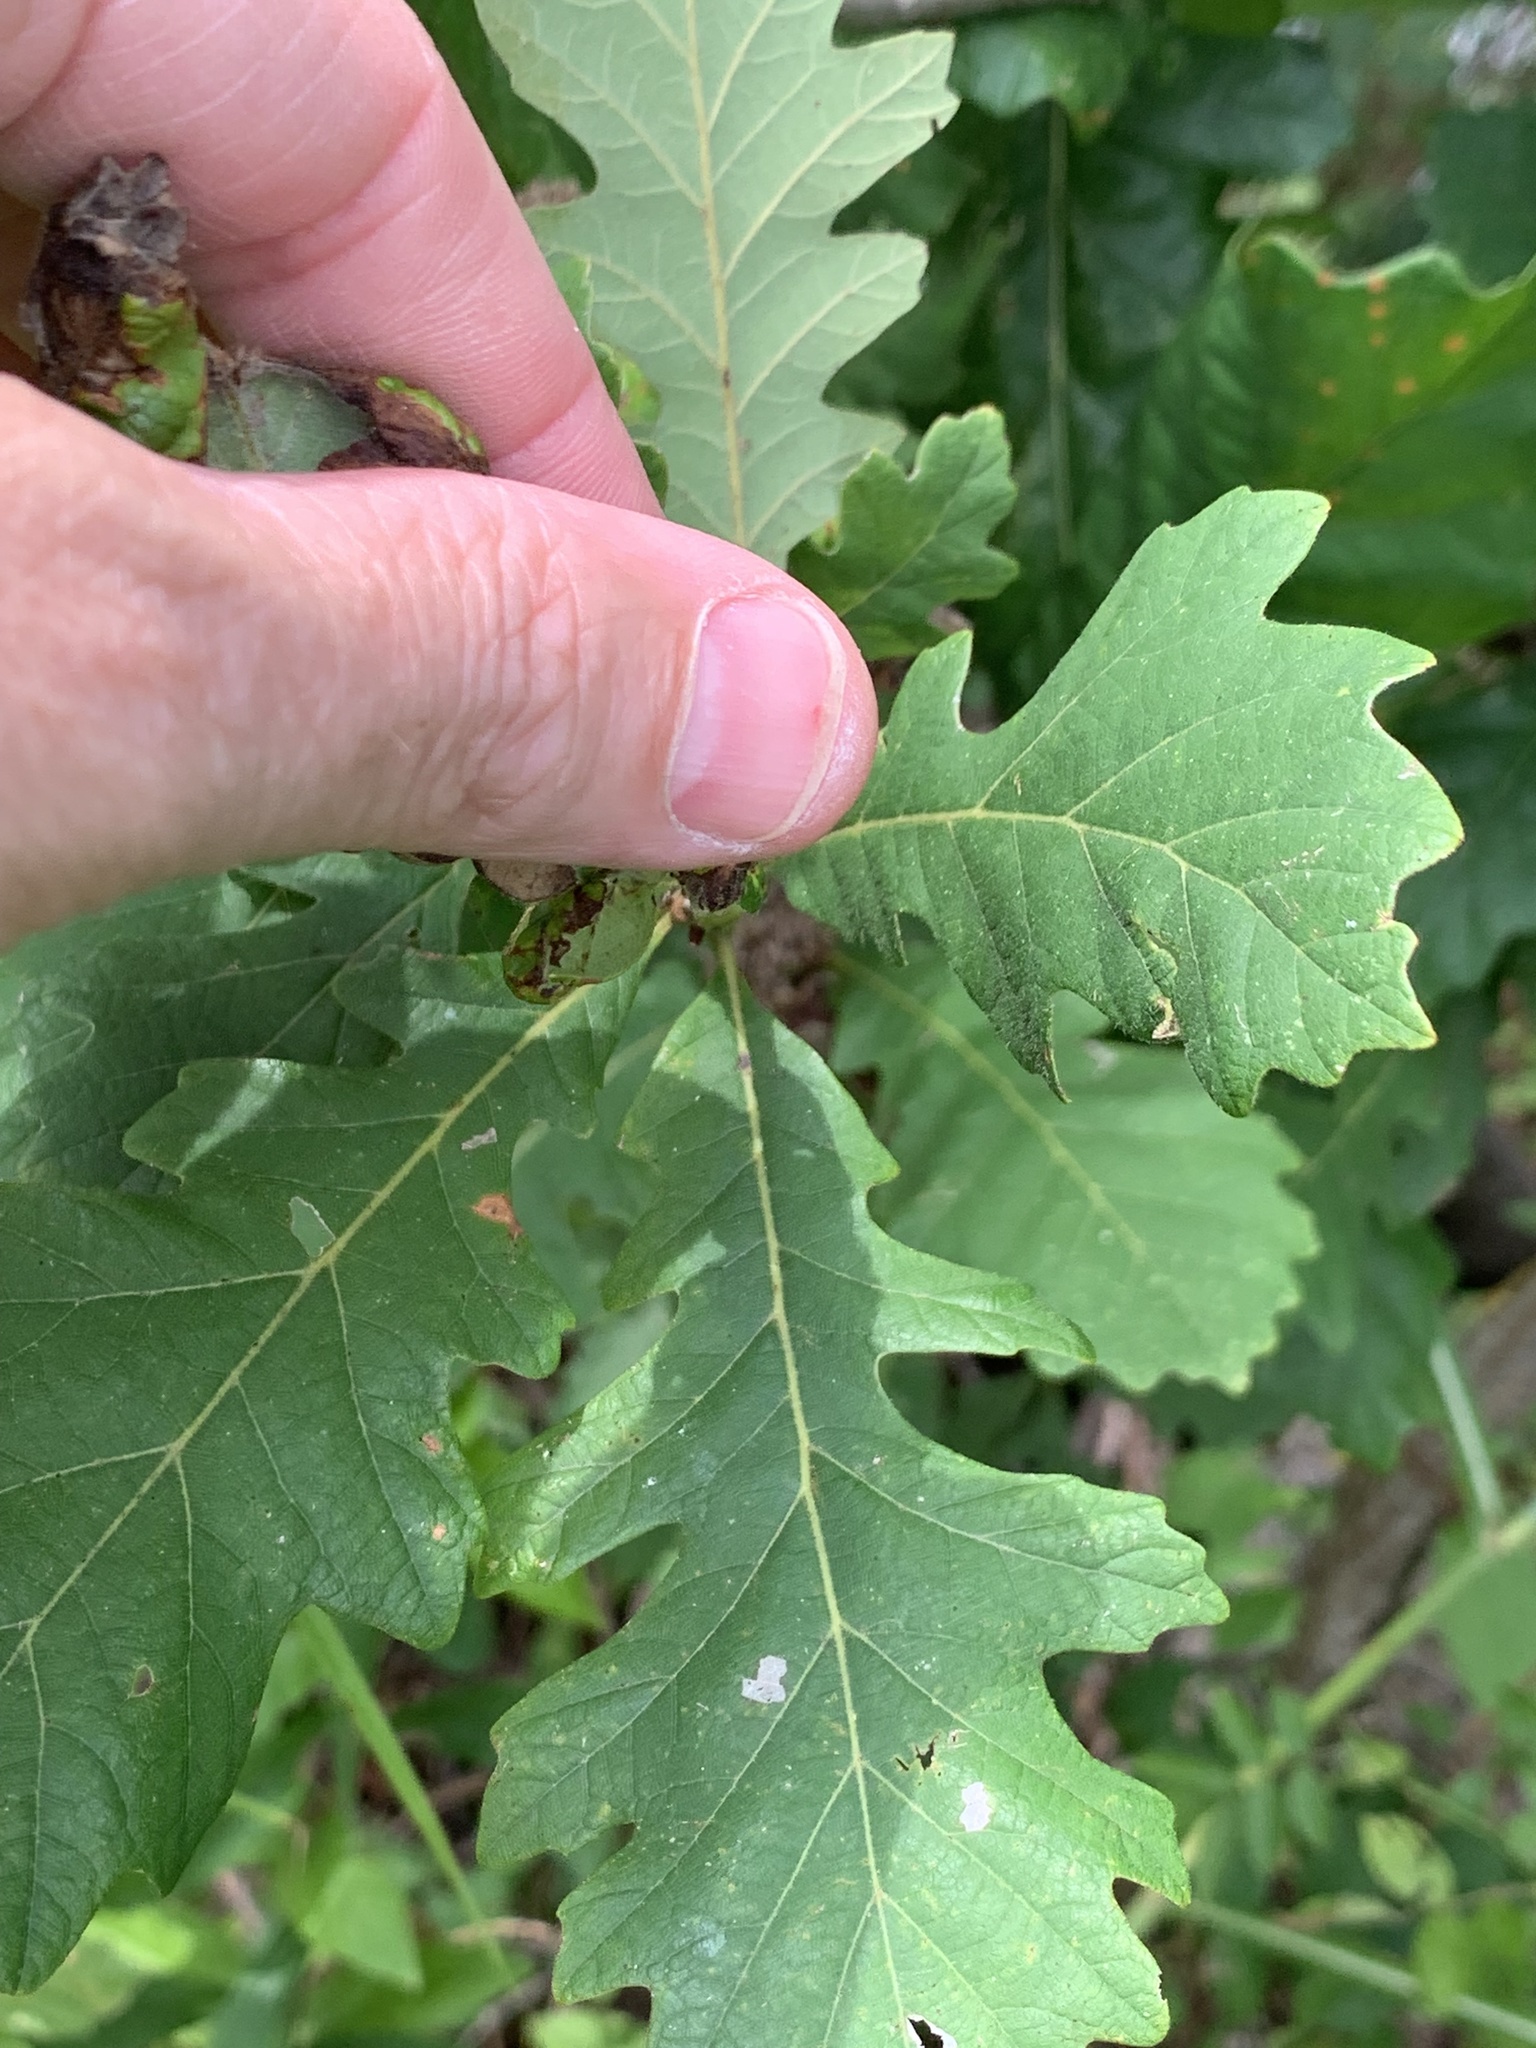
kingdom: Plantae
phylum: Tracheophyta
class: Magnoliopsida
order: Fagales
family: Fagaceae
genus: Quercus
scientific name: Quercus macrocarpa
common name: Bur oak
